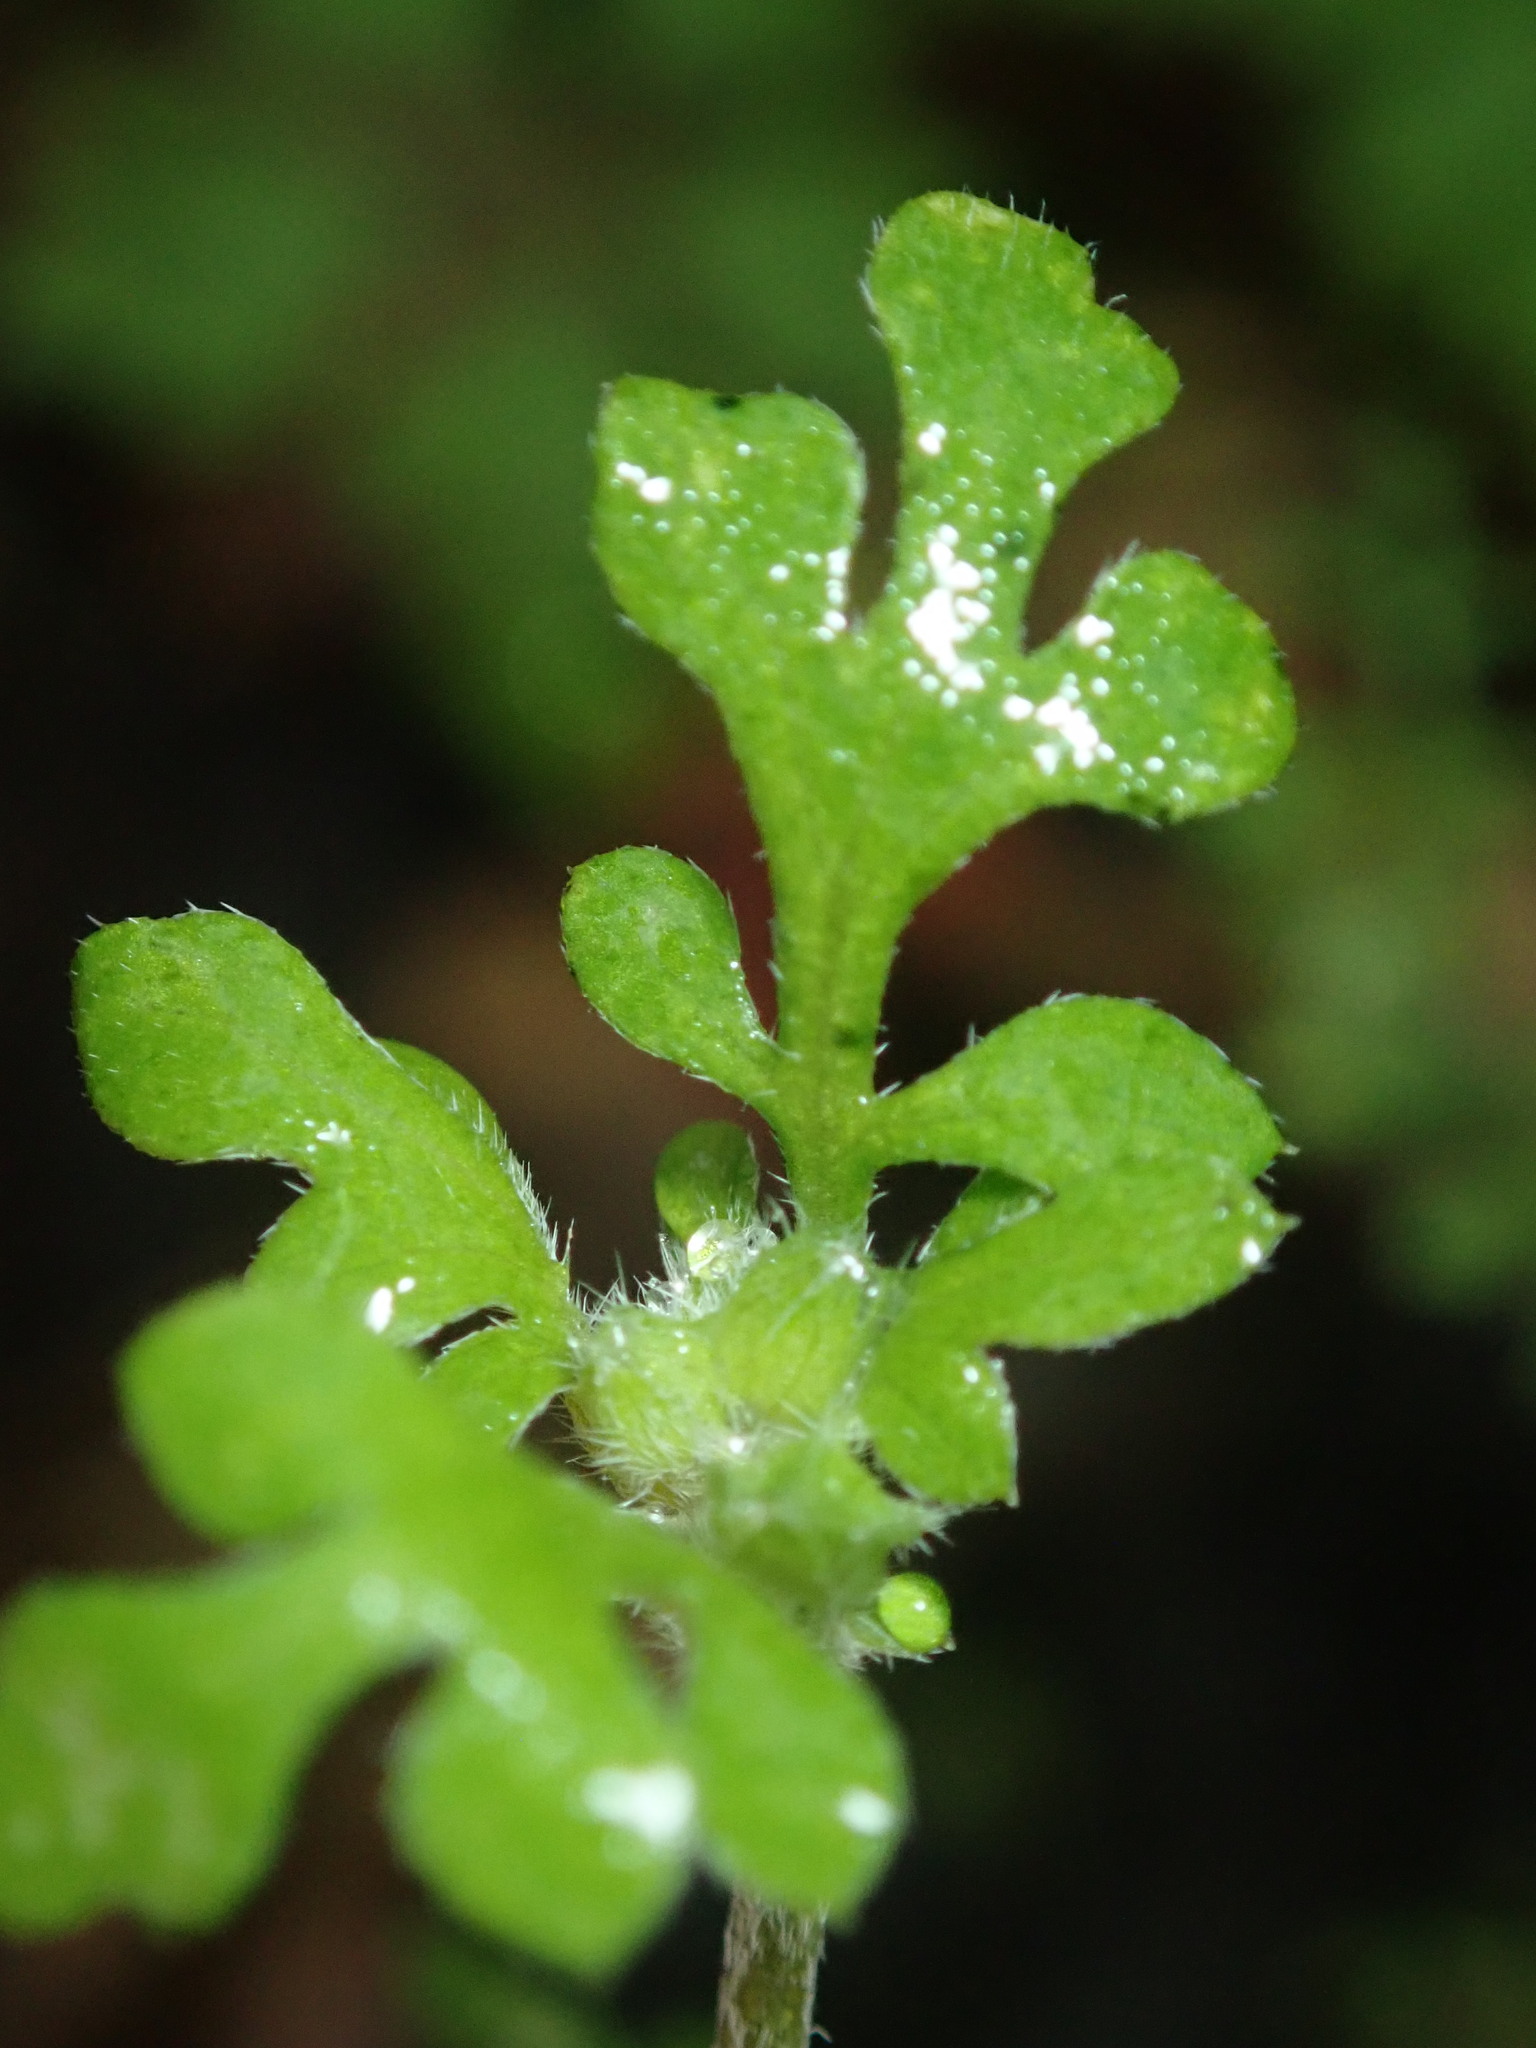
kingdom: Plantae
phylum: Tracheophyta
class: Magnoliopsida
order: Boraginales
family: Hydrophyllaceae
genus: Nemophila
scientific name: Nemophila heterophylla
